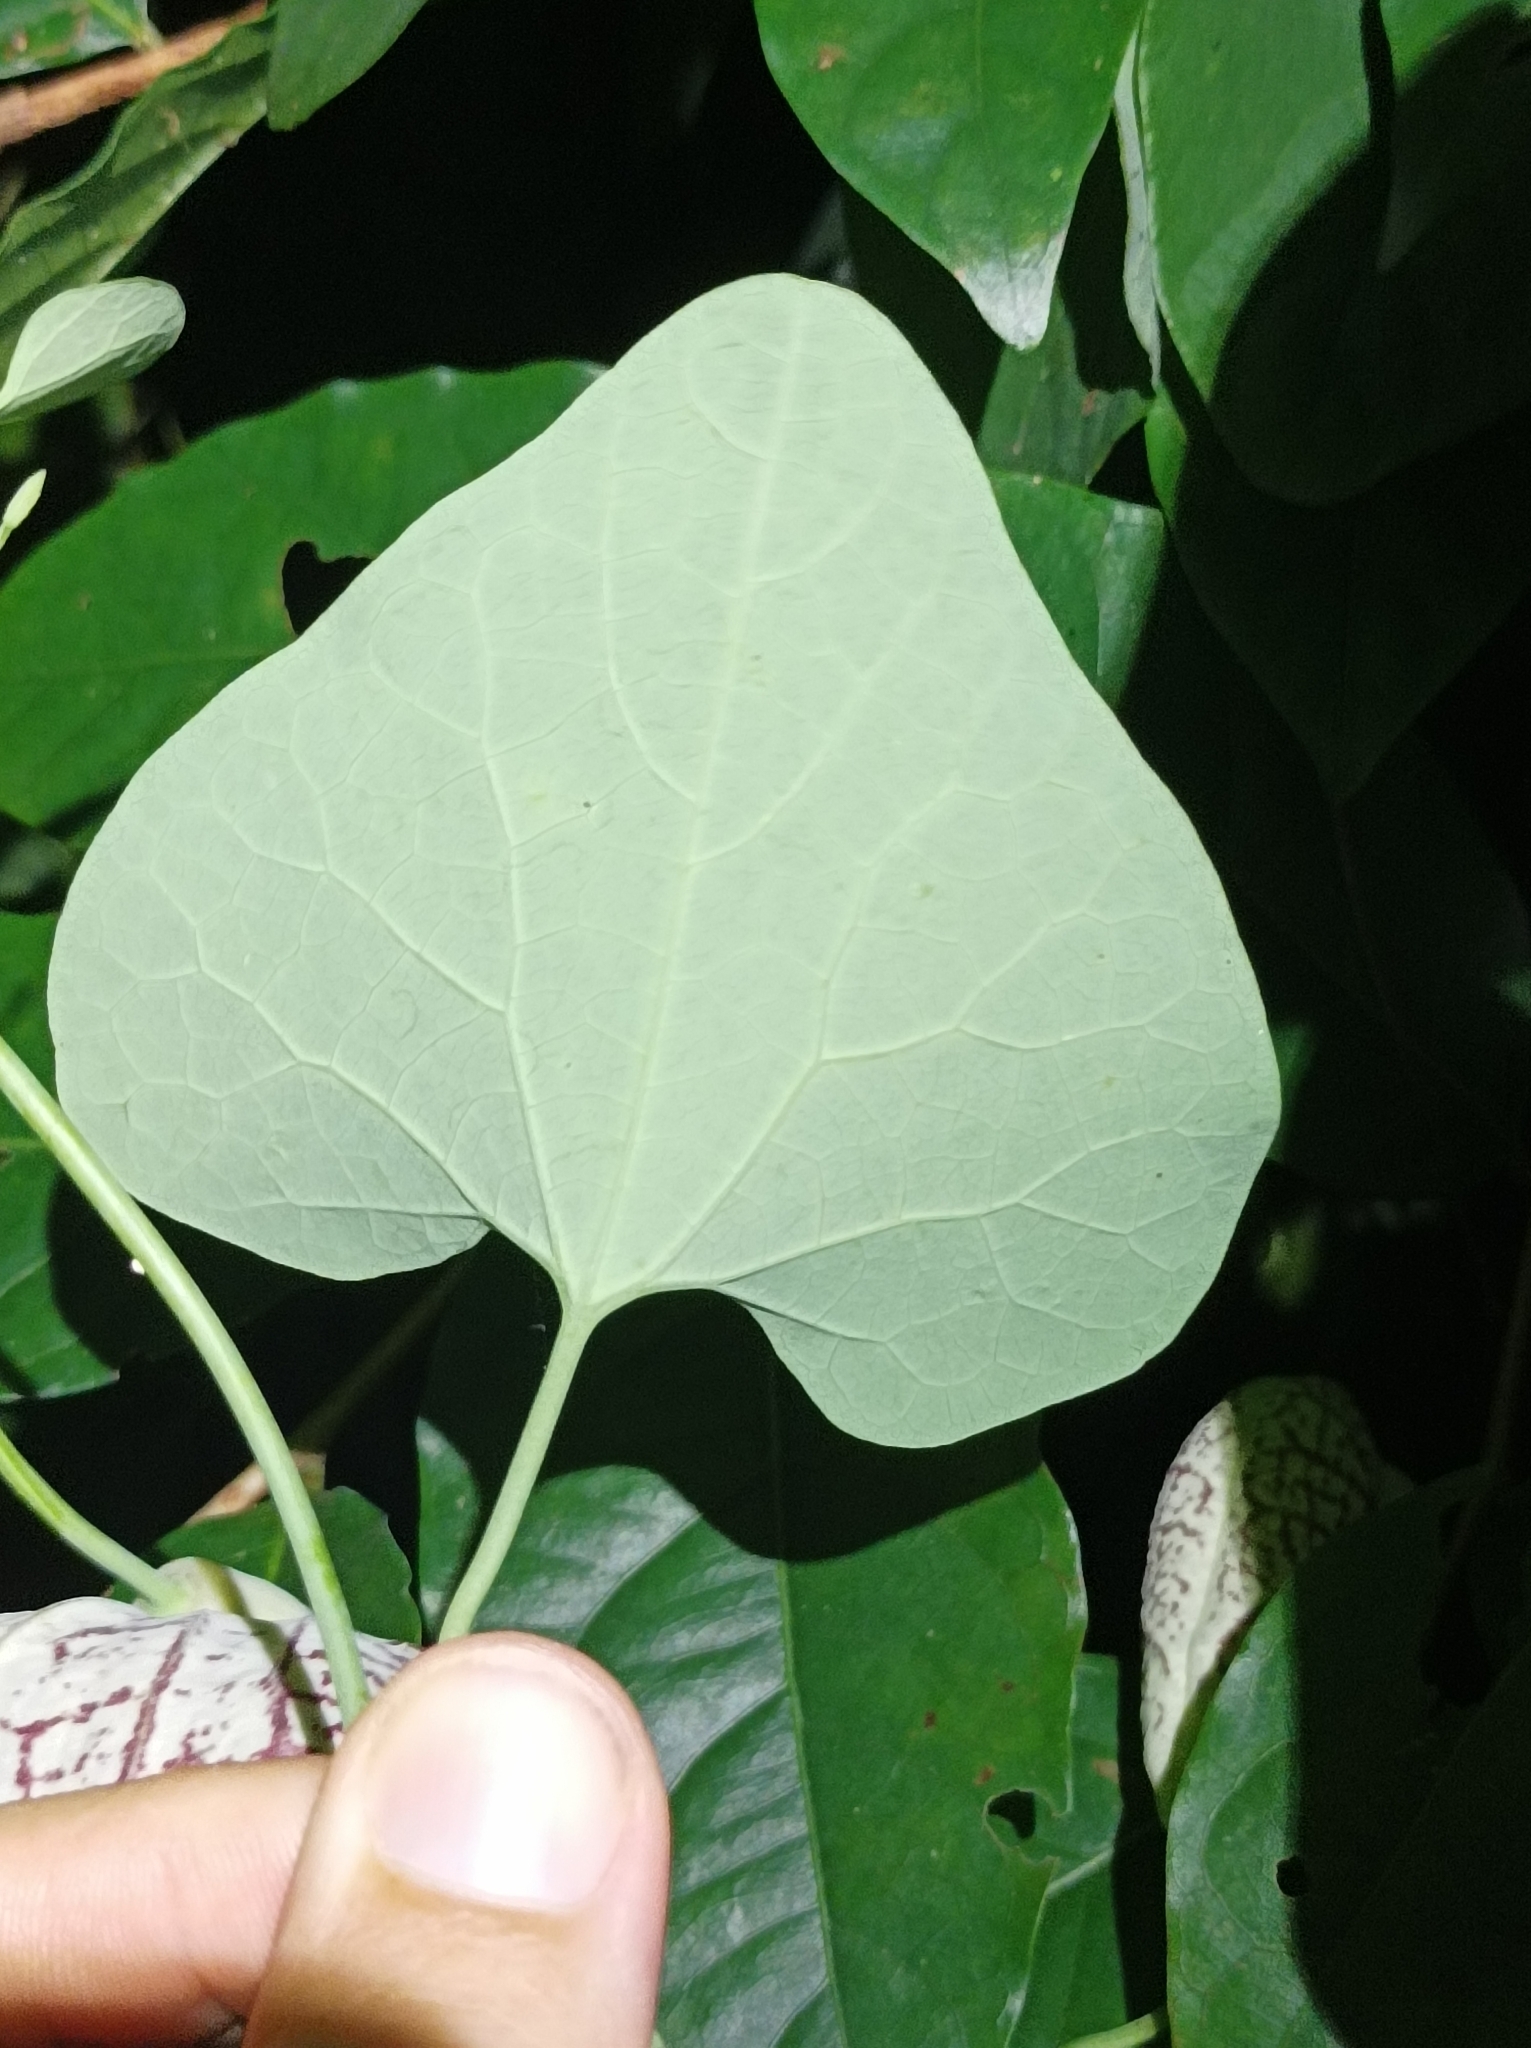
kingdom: Plantae
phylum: Tracheophyta
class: Magnoliopsida
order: Piperales
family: Aristolochiaceae
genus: Aristolochia
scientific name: Aristolochia littoralis
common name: Duck
